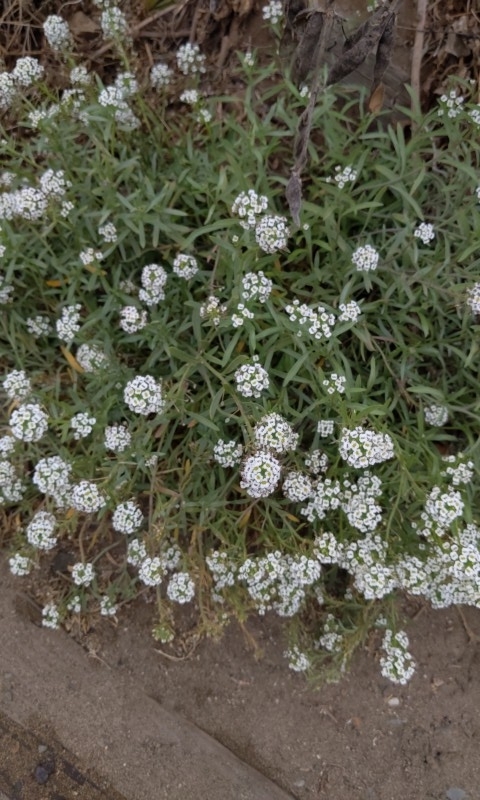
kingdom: Plantae
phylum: Tracheophyta
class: Magnoliopsida
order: Brassicales
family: Brassicaceae
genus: Lobularia
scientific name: Lobularia maritima
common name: Sweet alison
